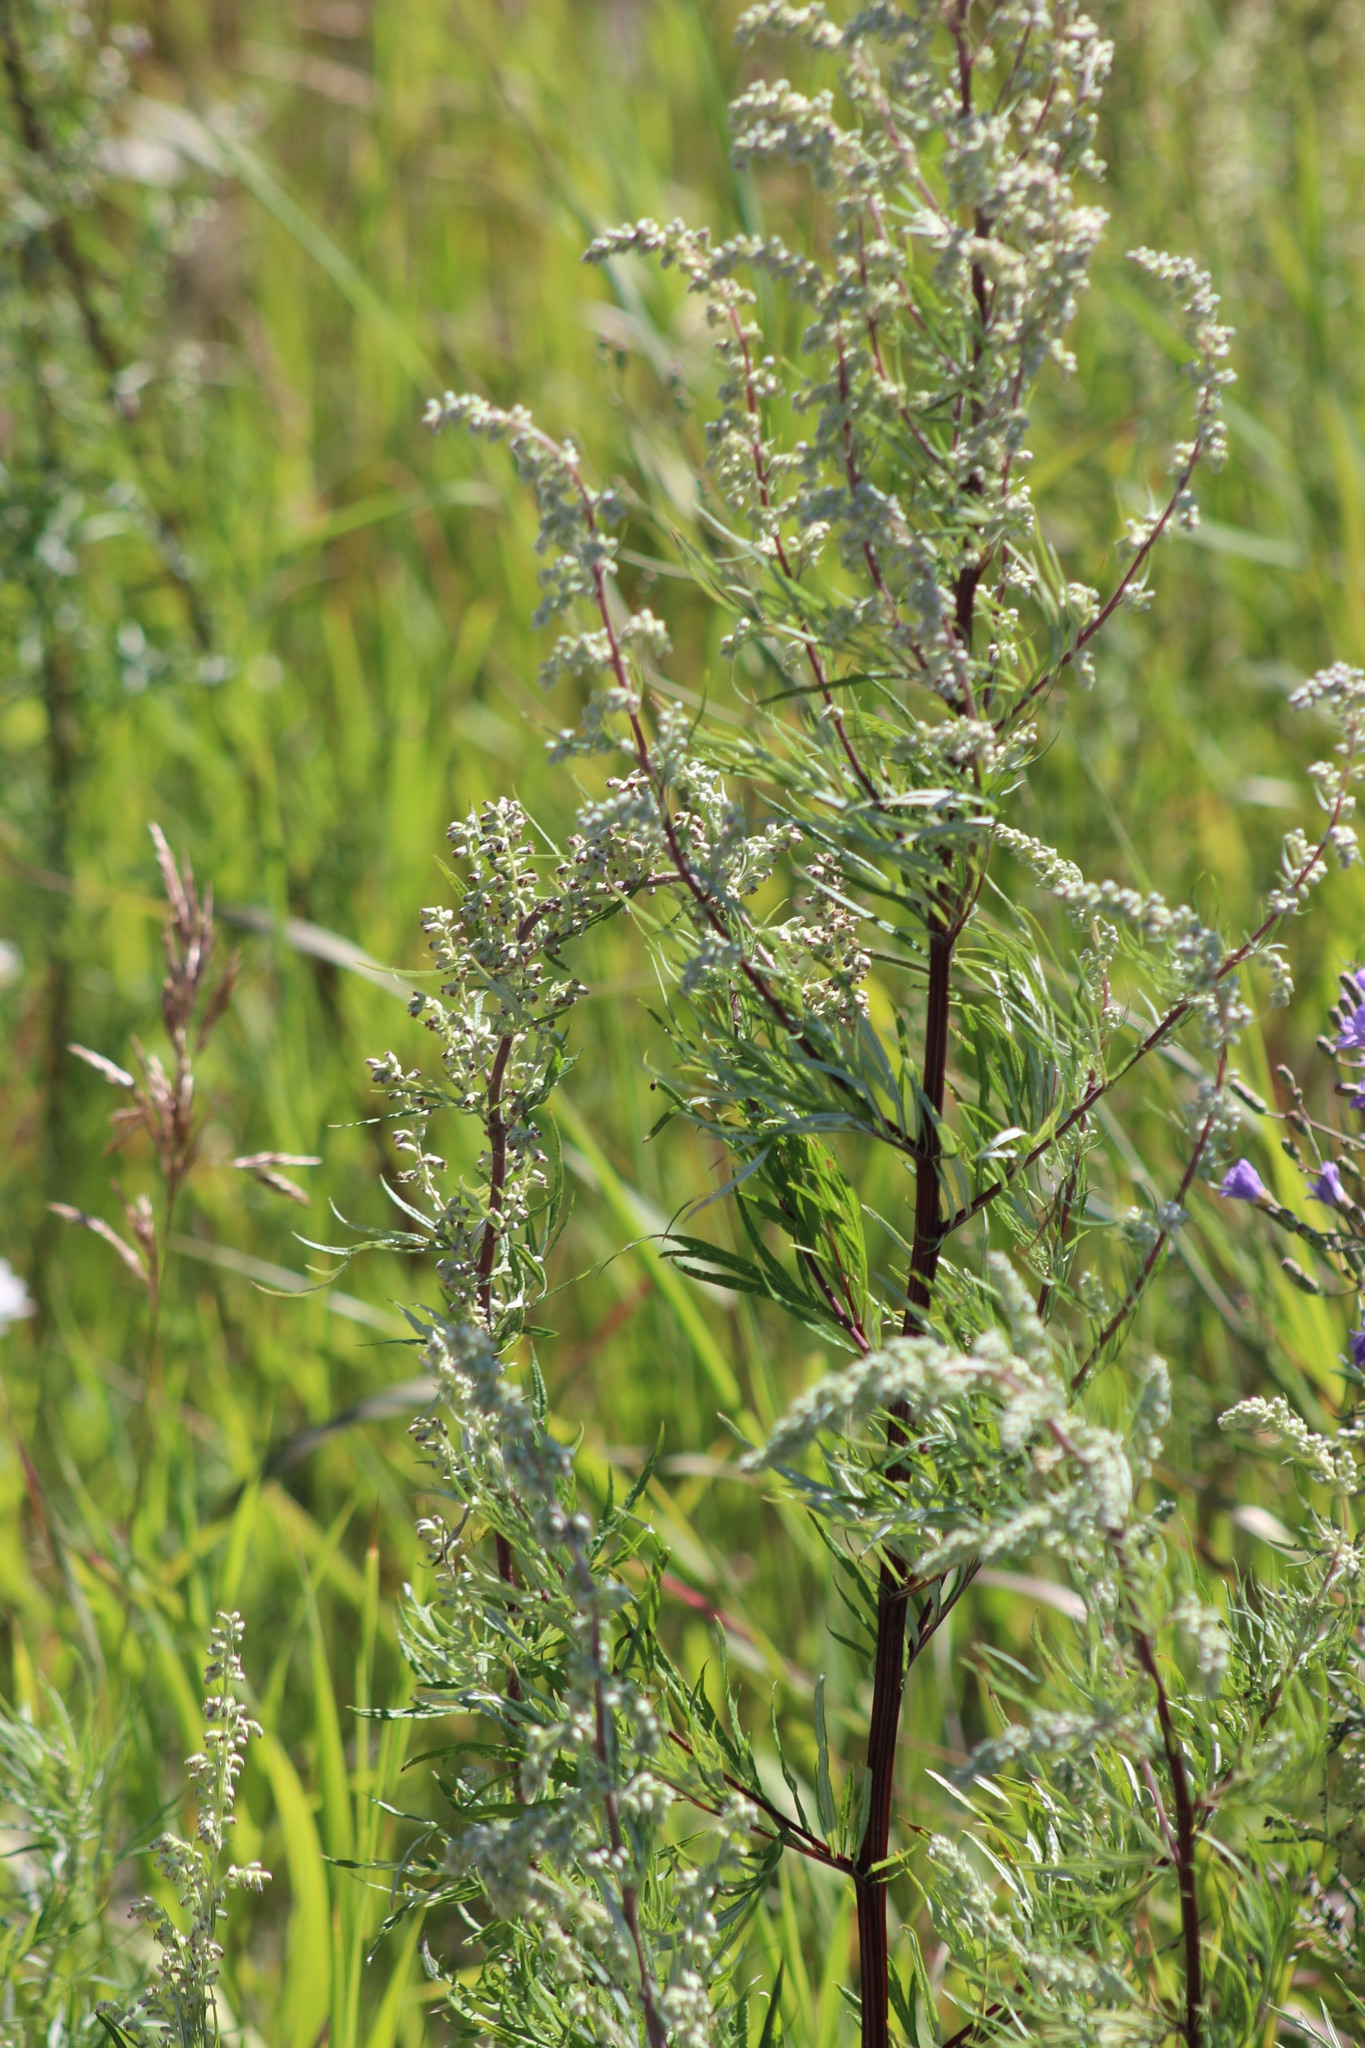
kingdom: Plantae
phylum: Tracheophyta
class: Magnoliopsida
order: Asterales
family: Asteraceae
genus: Artemisia
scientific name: Artemisia vulgaris
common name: Mugwort
